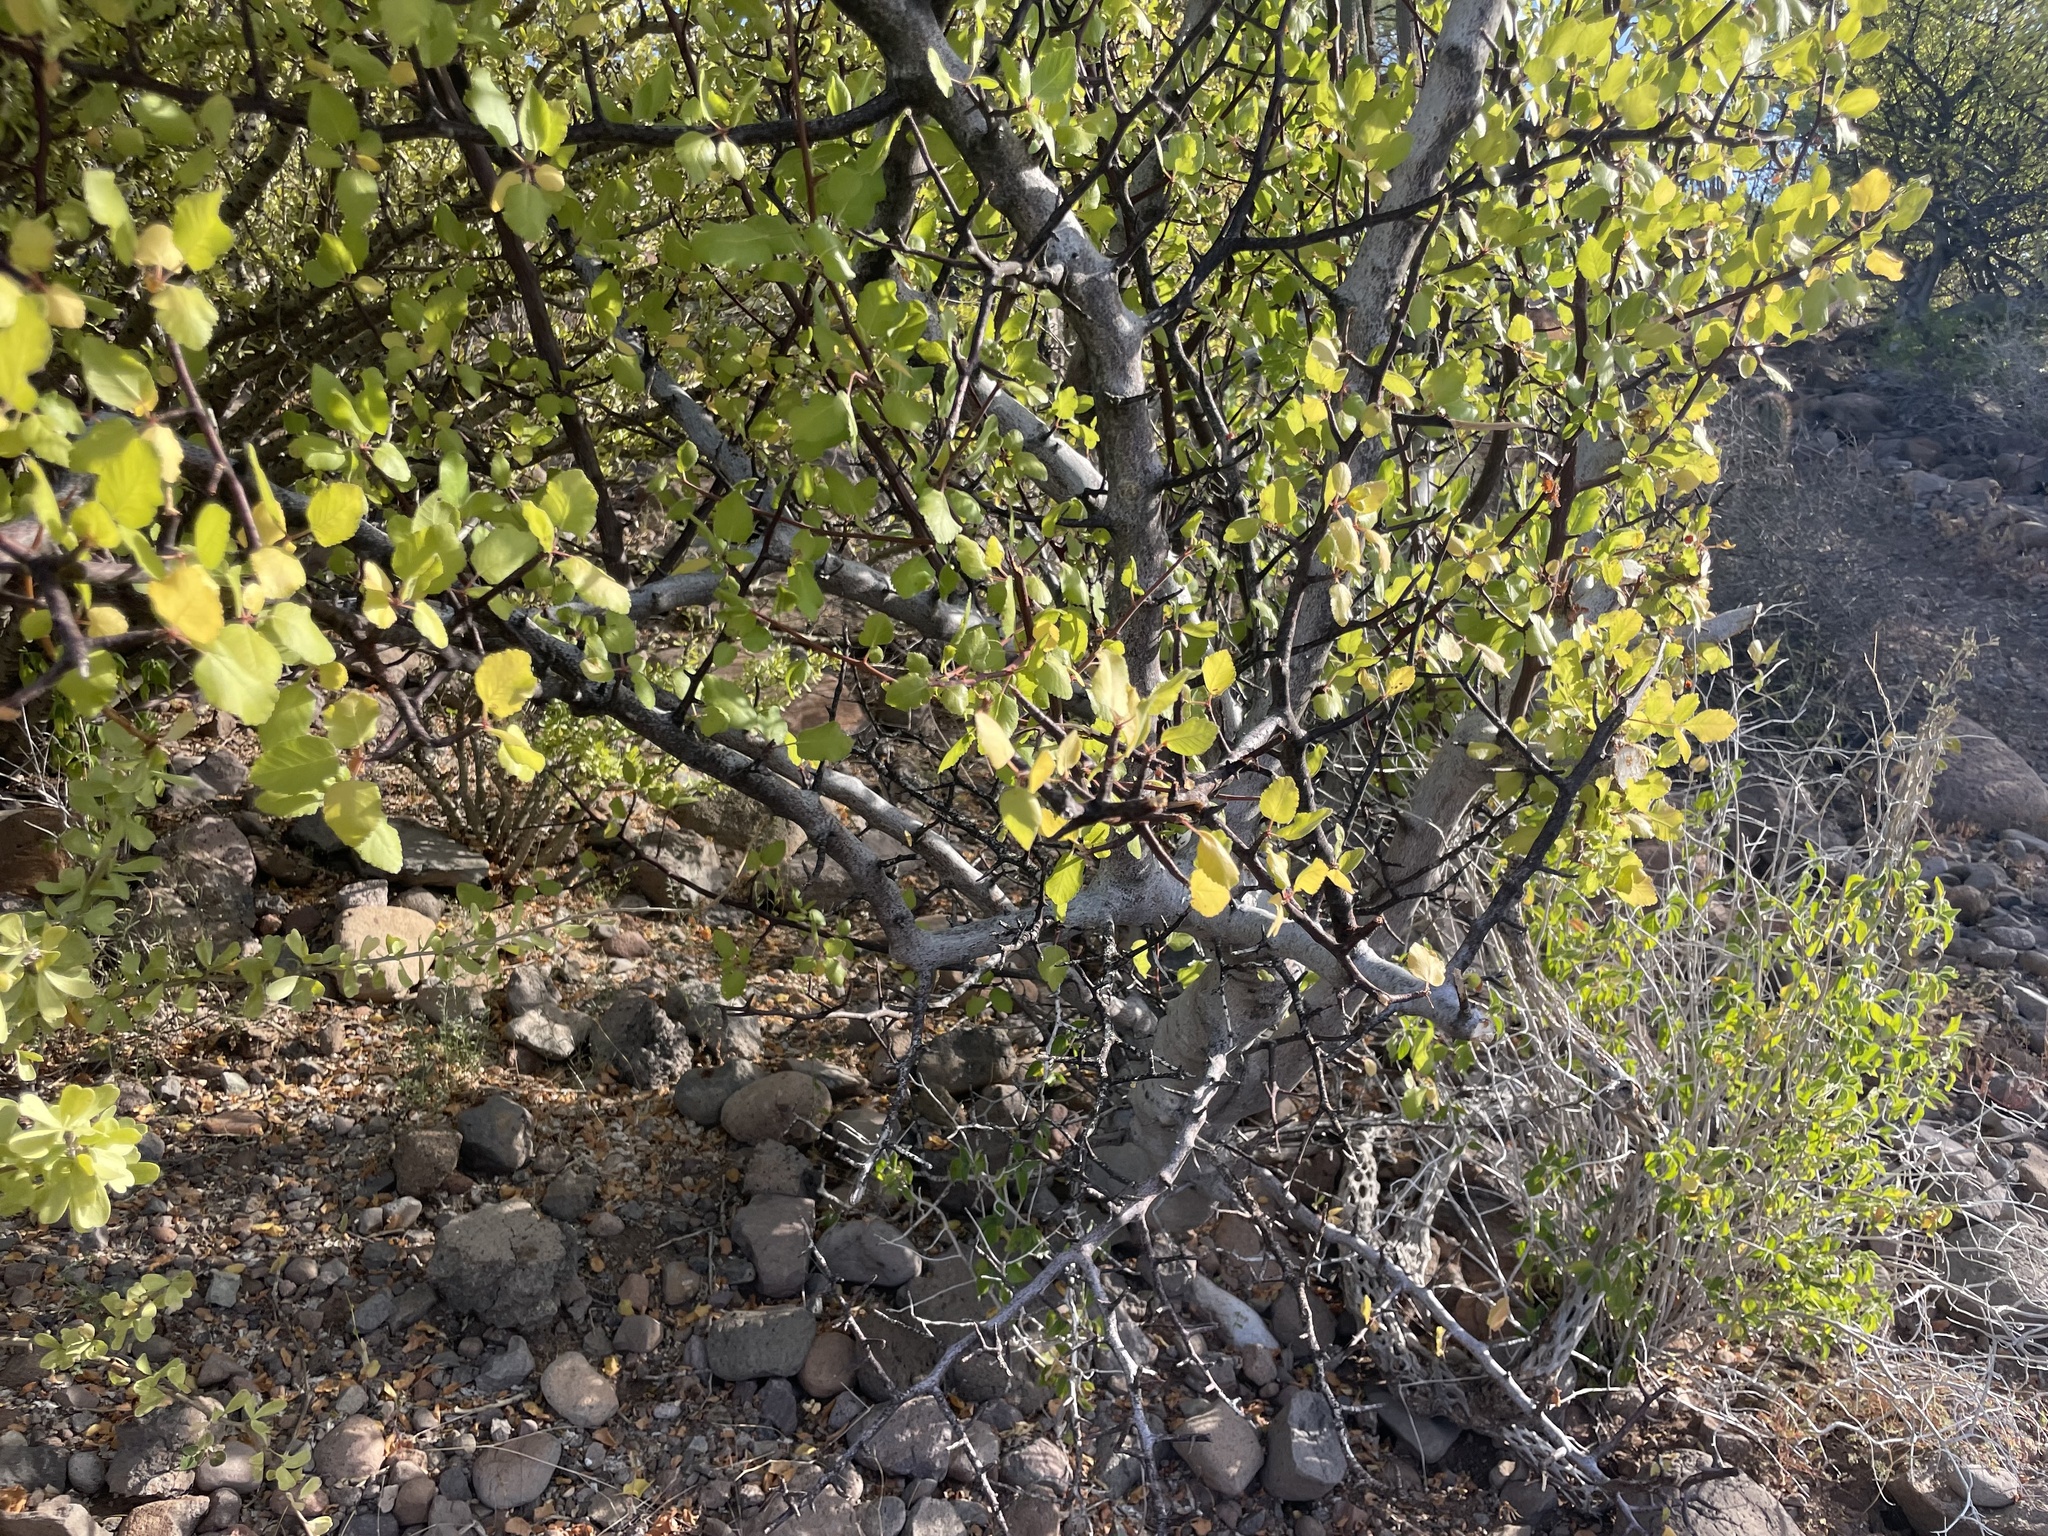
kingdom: Plantae
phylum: Tracheophyta
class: Magnoliopsida
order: Sapindales
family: Burseraceae
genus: Bursera
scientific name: Bursera epinnata
